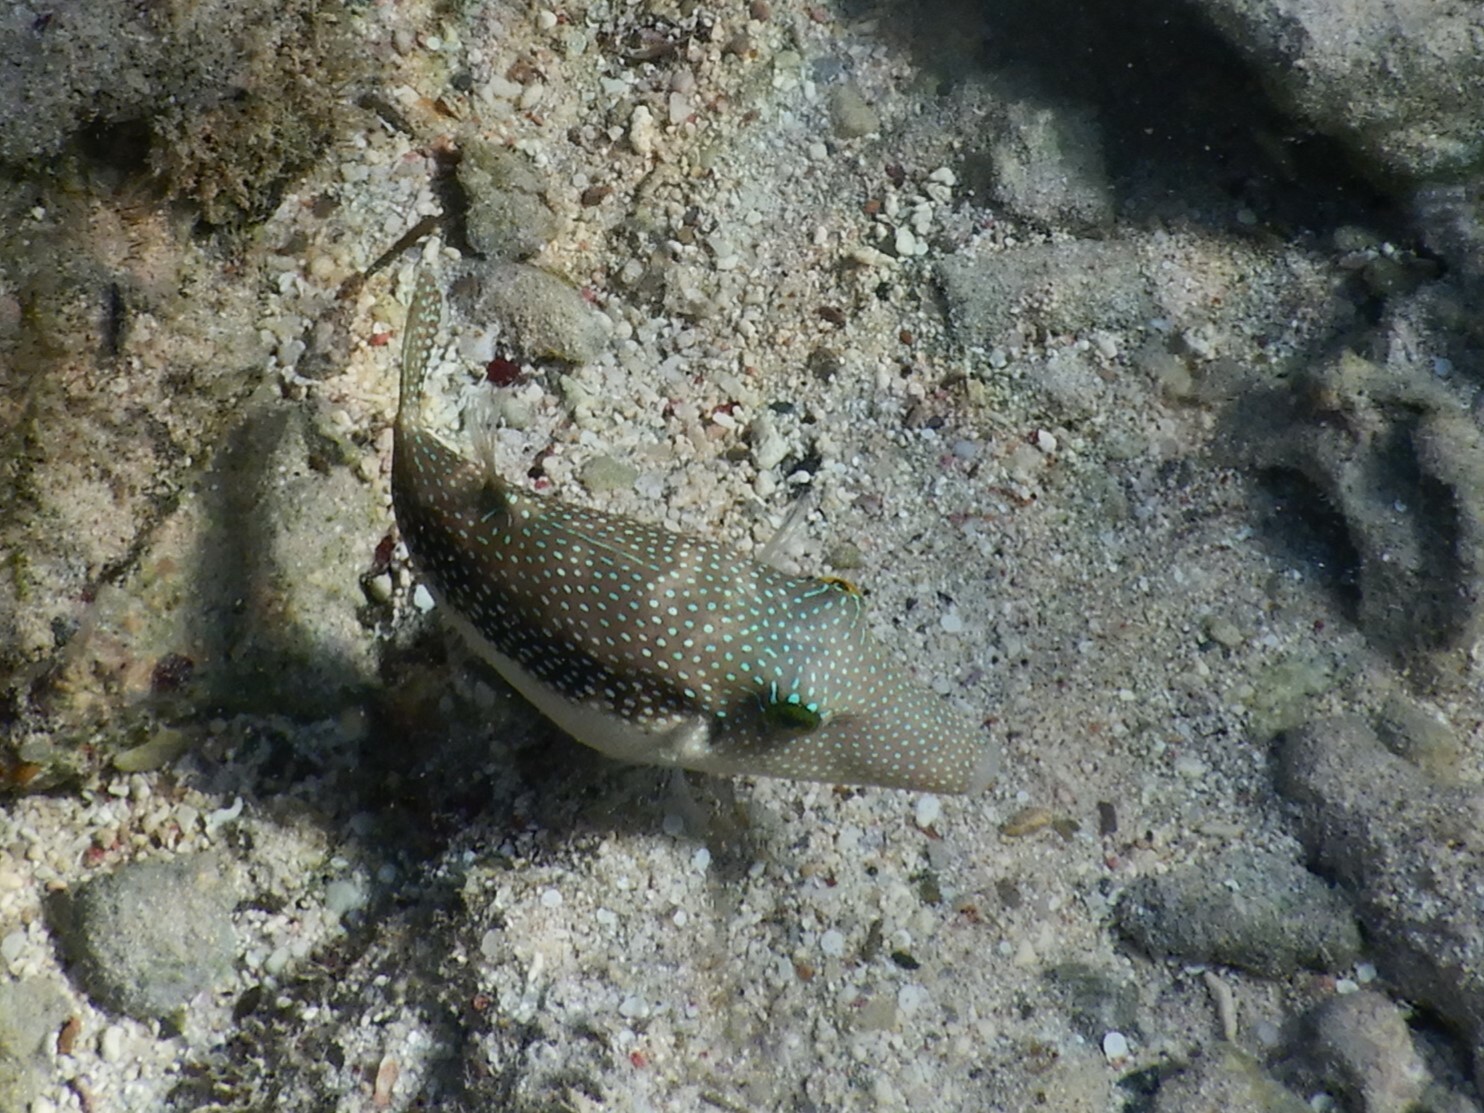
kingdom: Animalia
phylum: Chordata
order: Tetraodontiformes
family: Tetraodontidae
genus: Canthigaster
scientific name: Canthigaster margaritata
